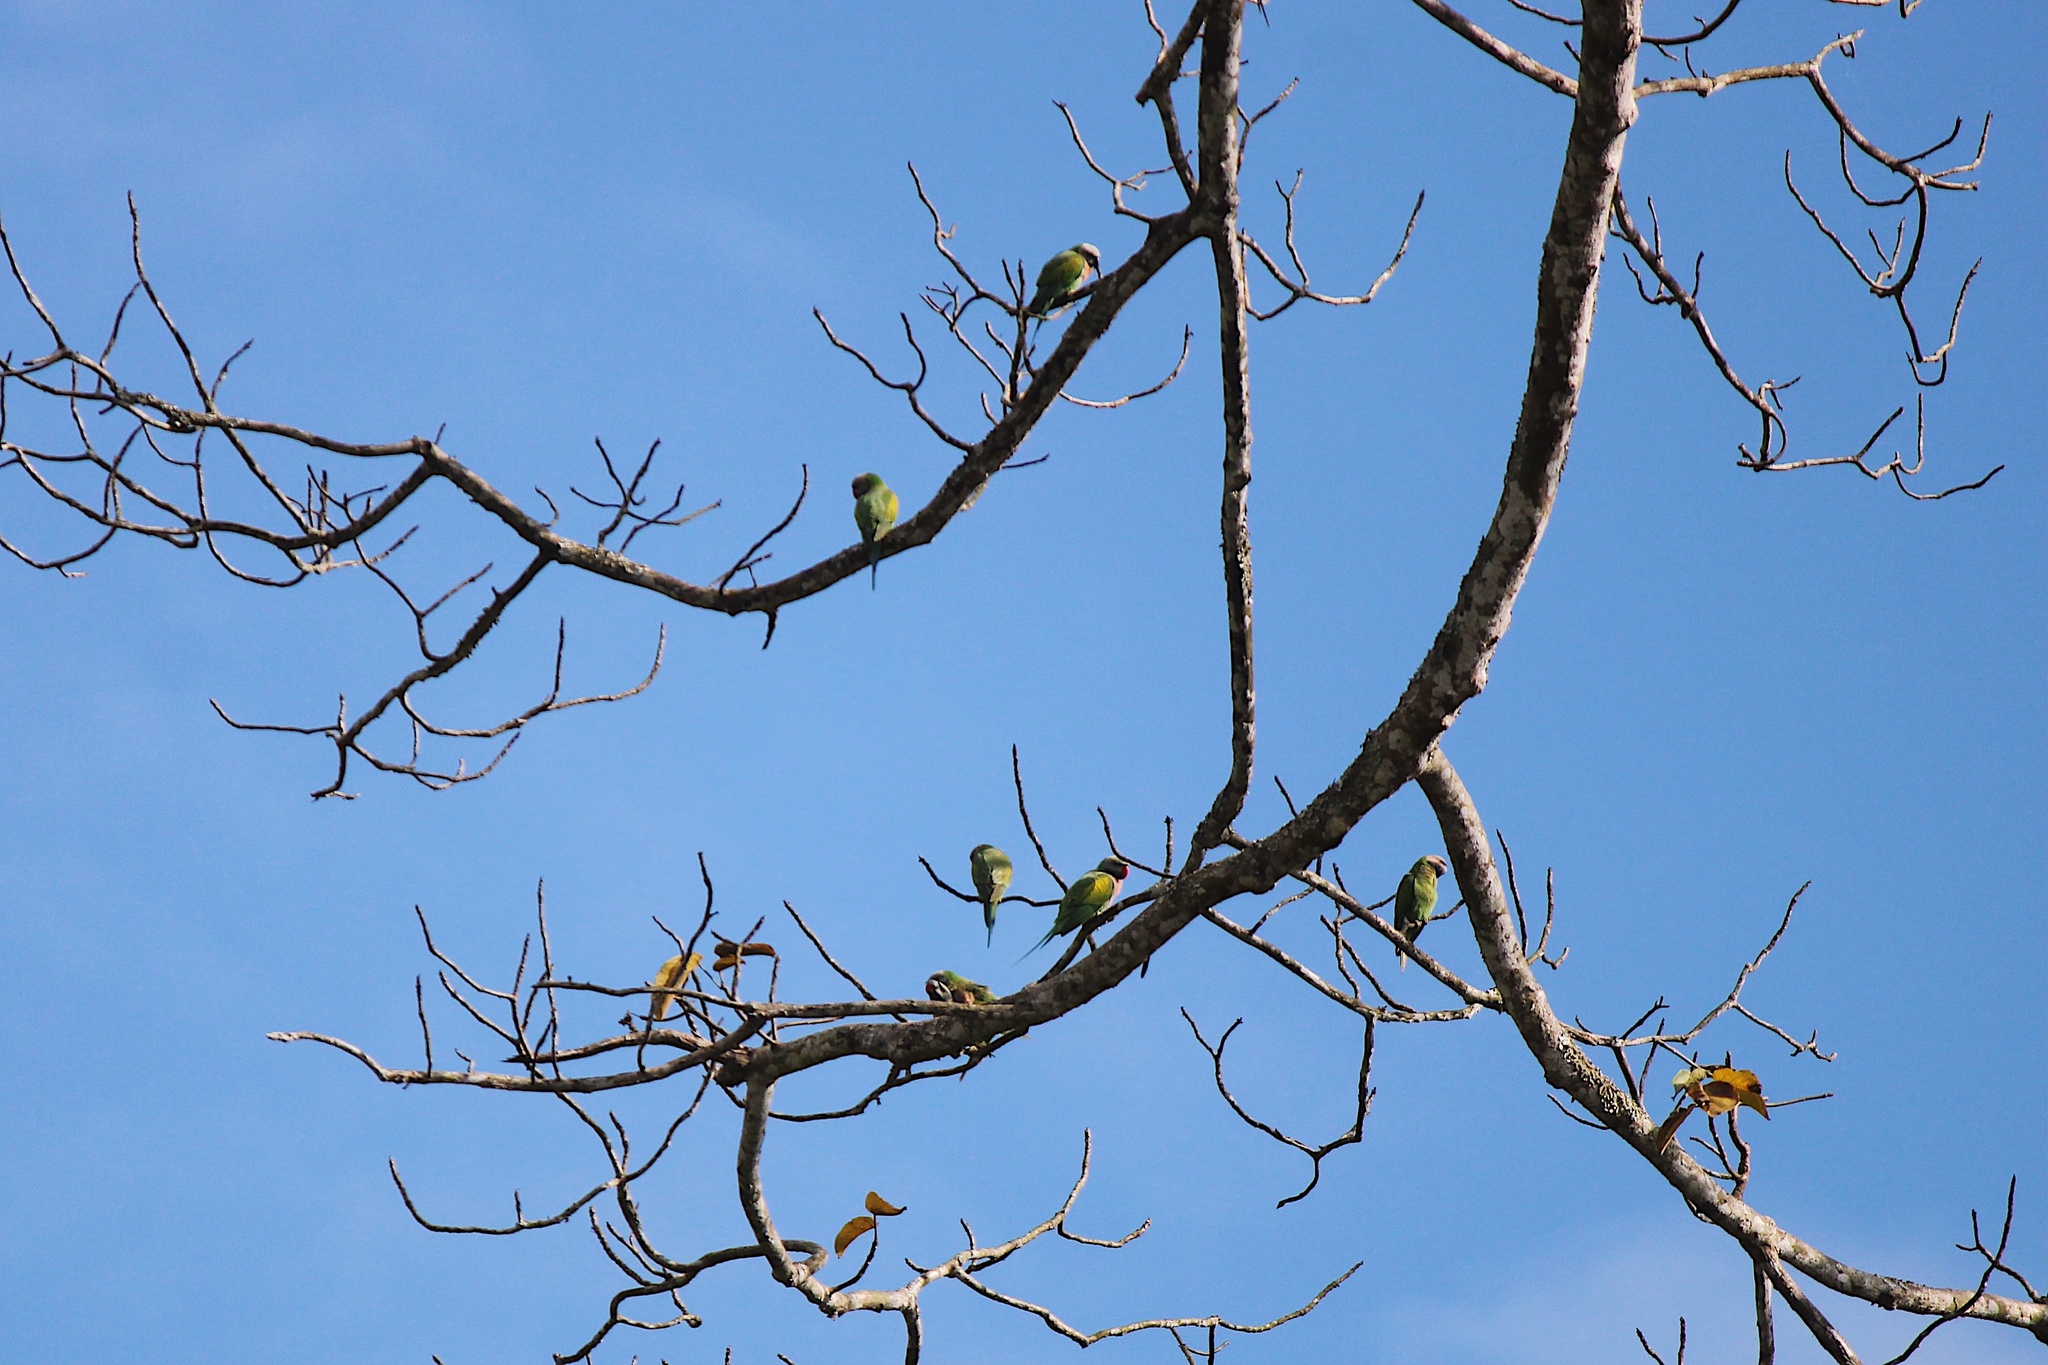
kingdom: Animalia
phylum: Chordata
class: Aves
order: Psittaciformes
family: Psittacidae
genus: Psittacula
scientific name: Psittacula alexandri
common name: Red-breasted parakeet
